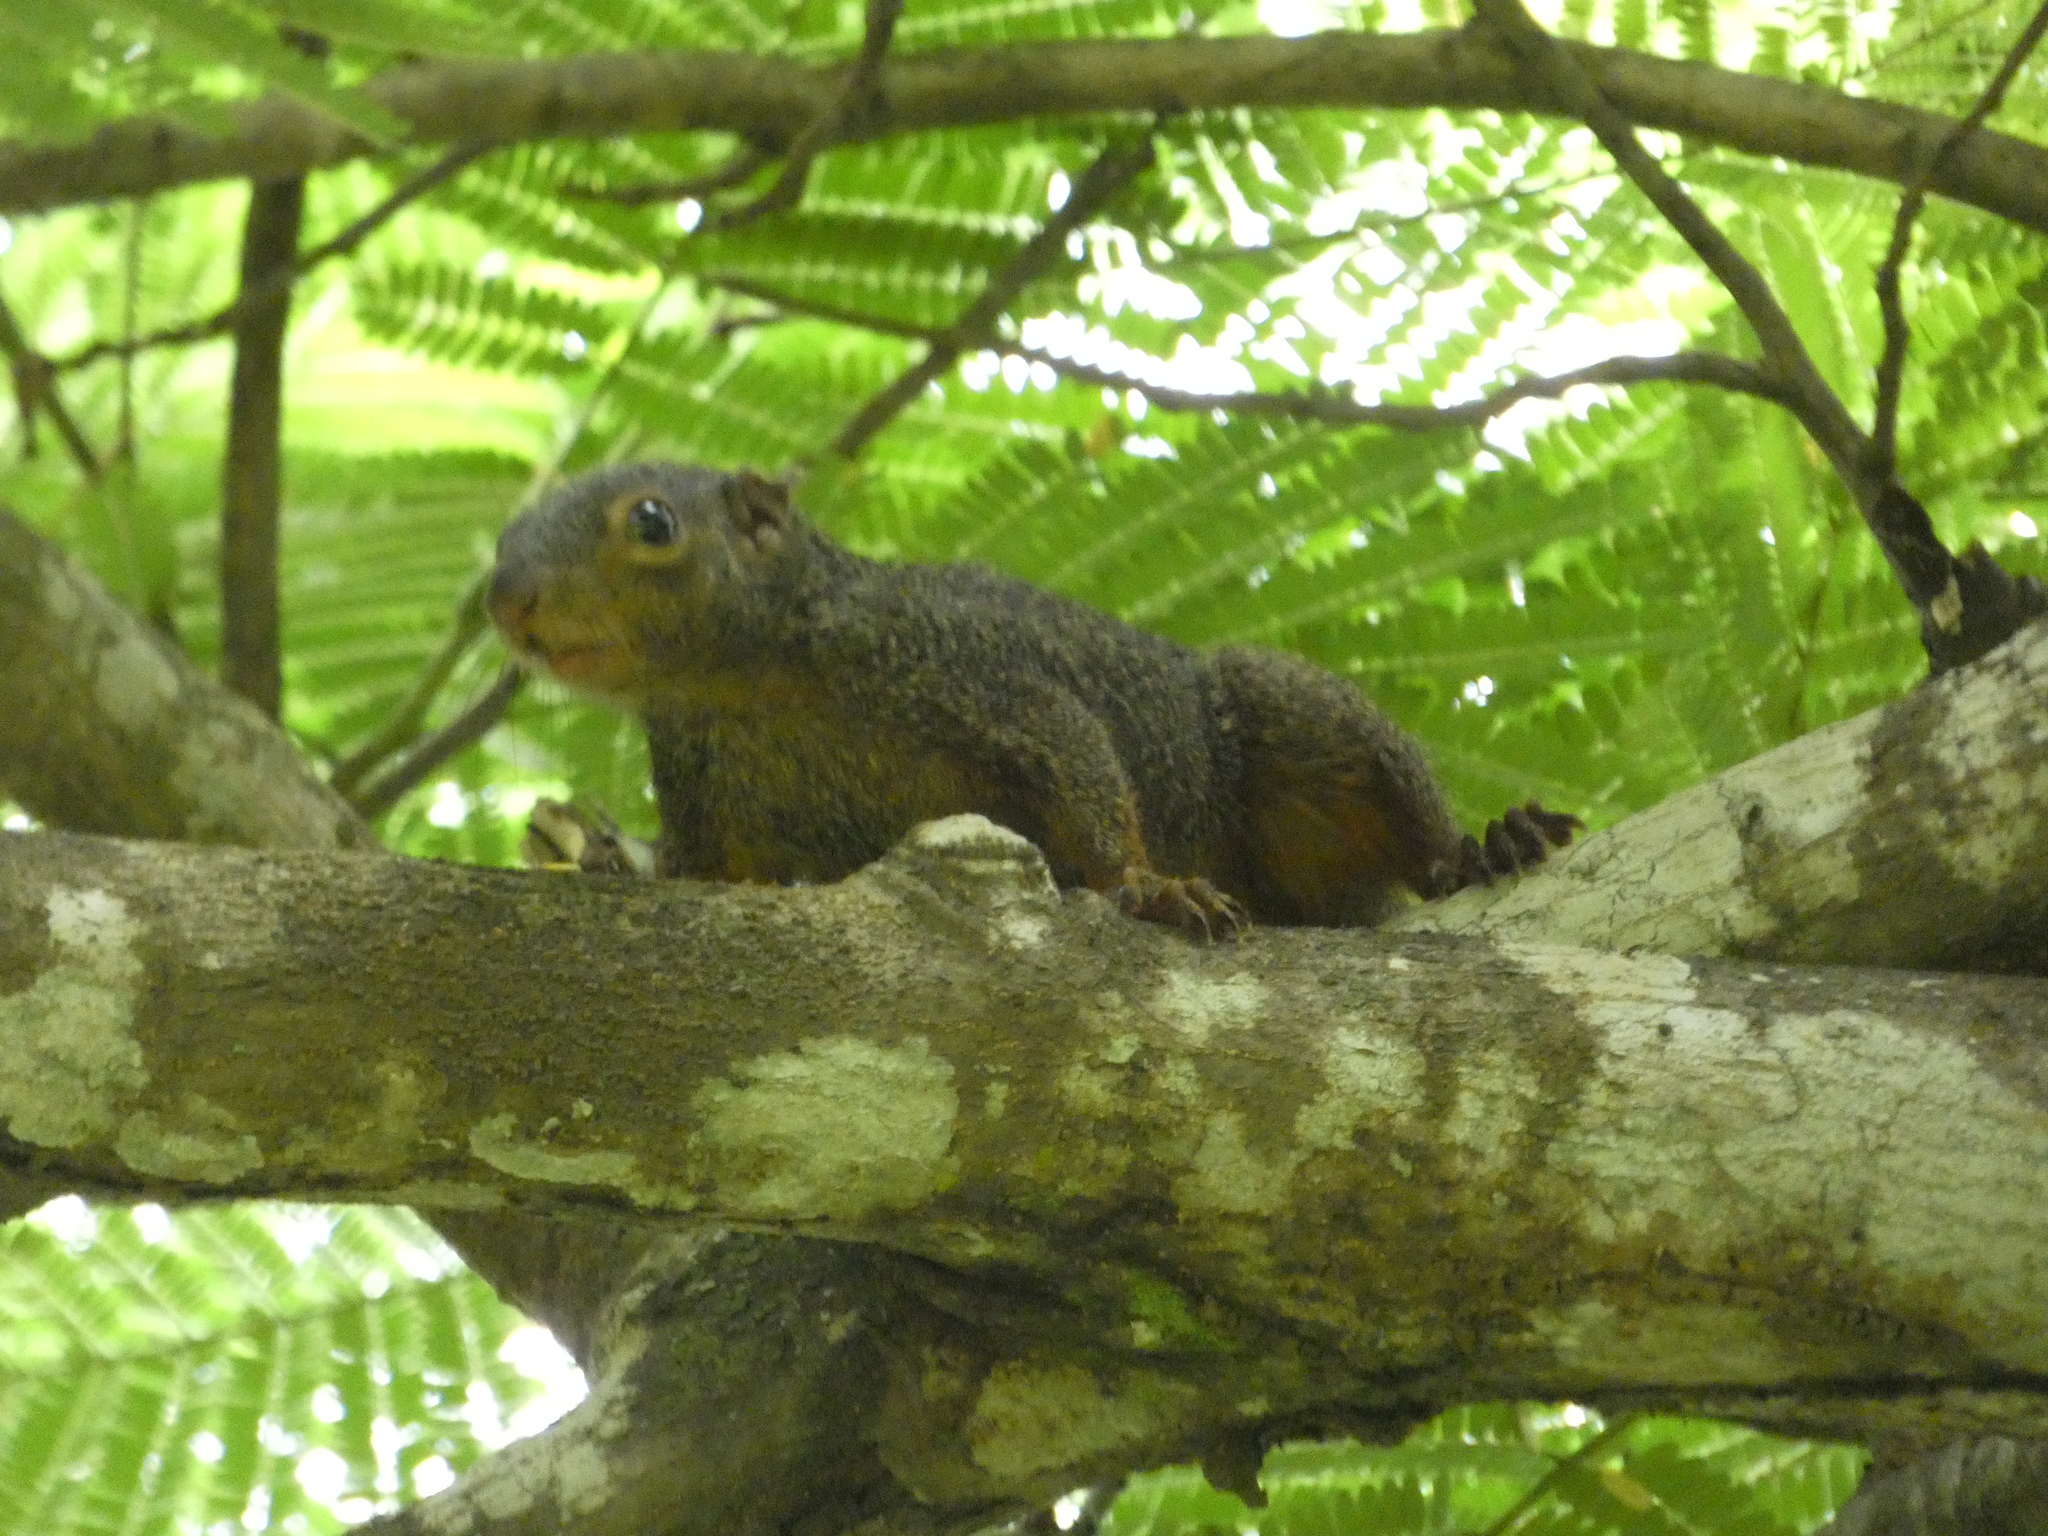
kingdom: Animalia
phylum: Chordata
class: Mammalia
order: Rodentia
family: Sciuridae
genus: Heliosciurus
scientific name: Heliosciurus rufobrachium
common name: Red-legged sun squirrel
